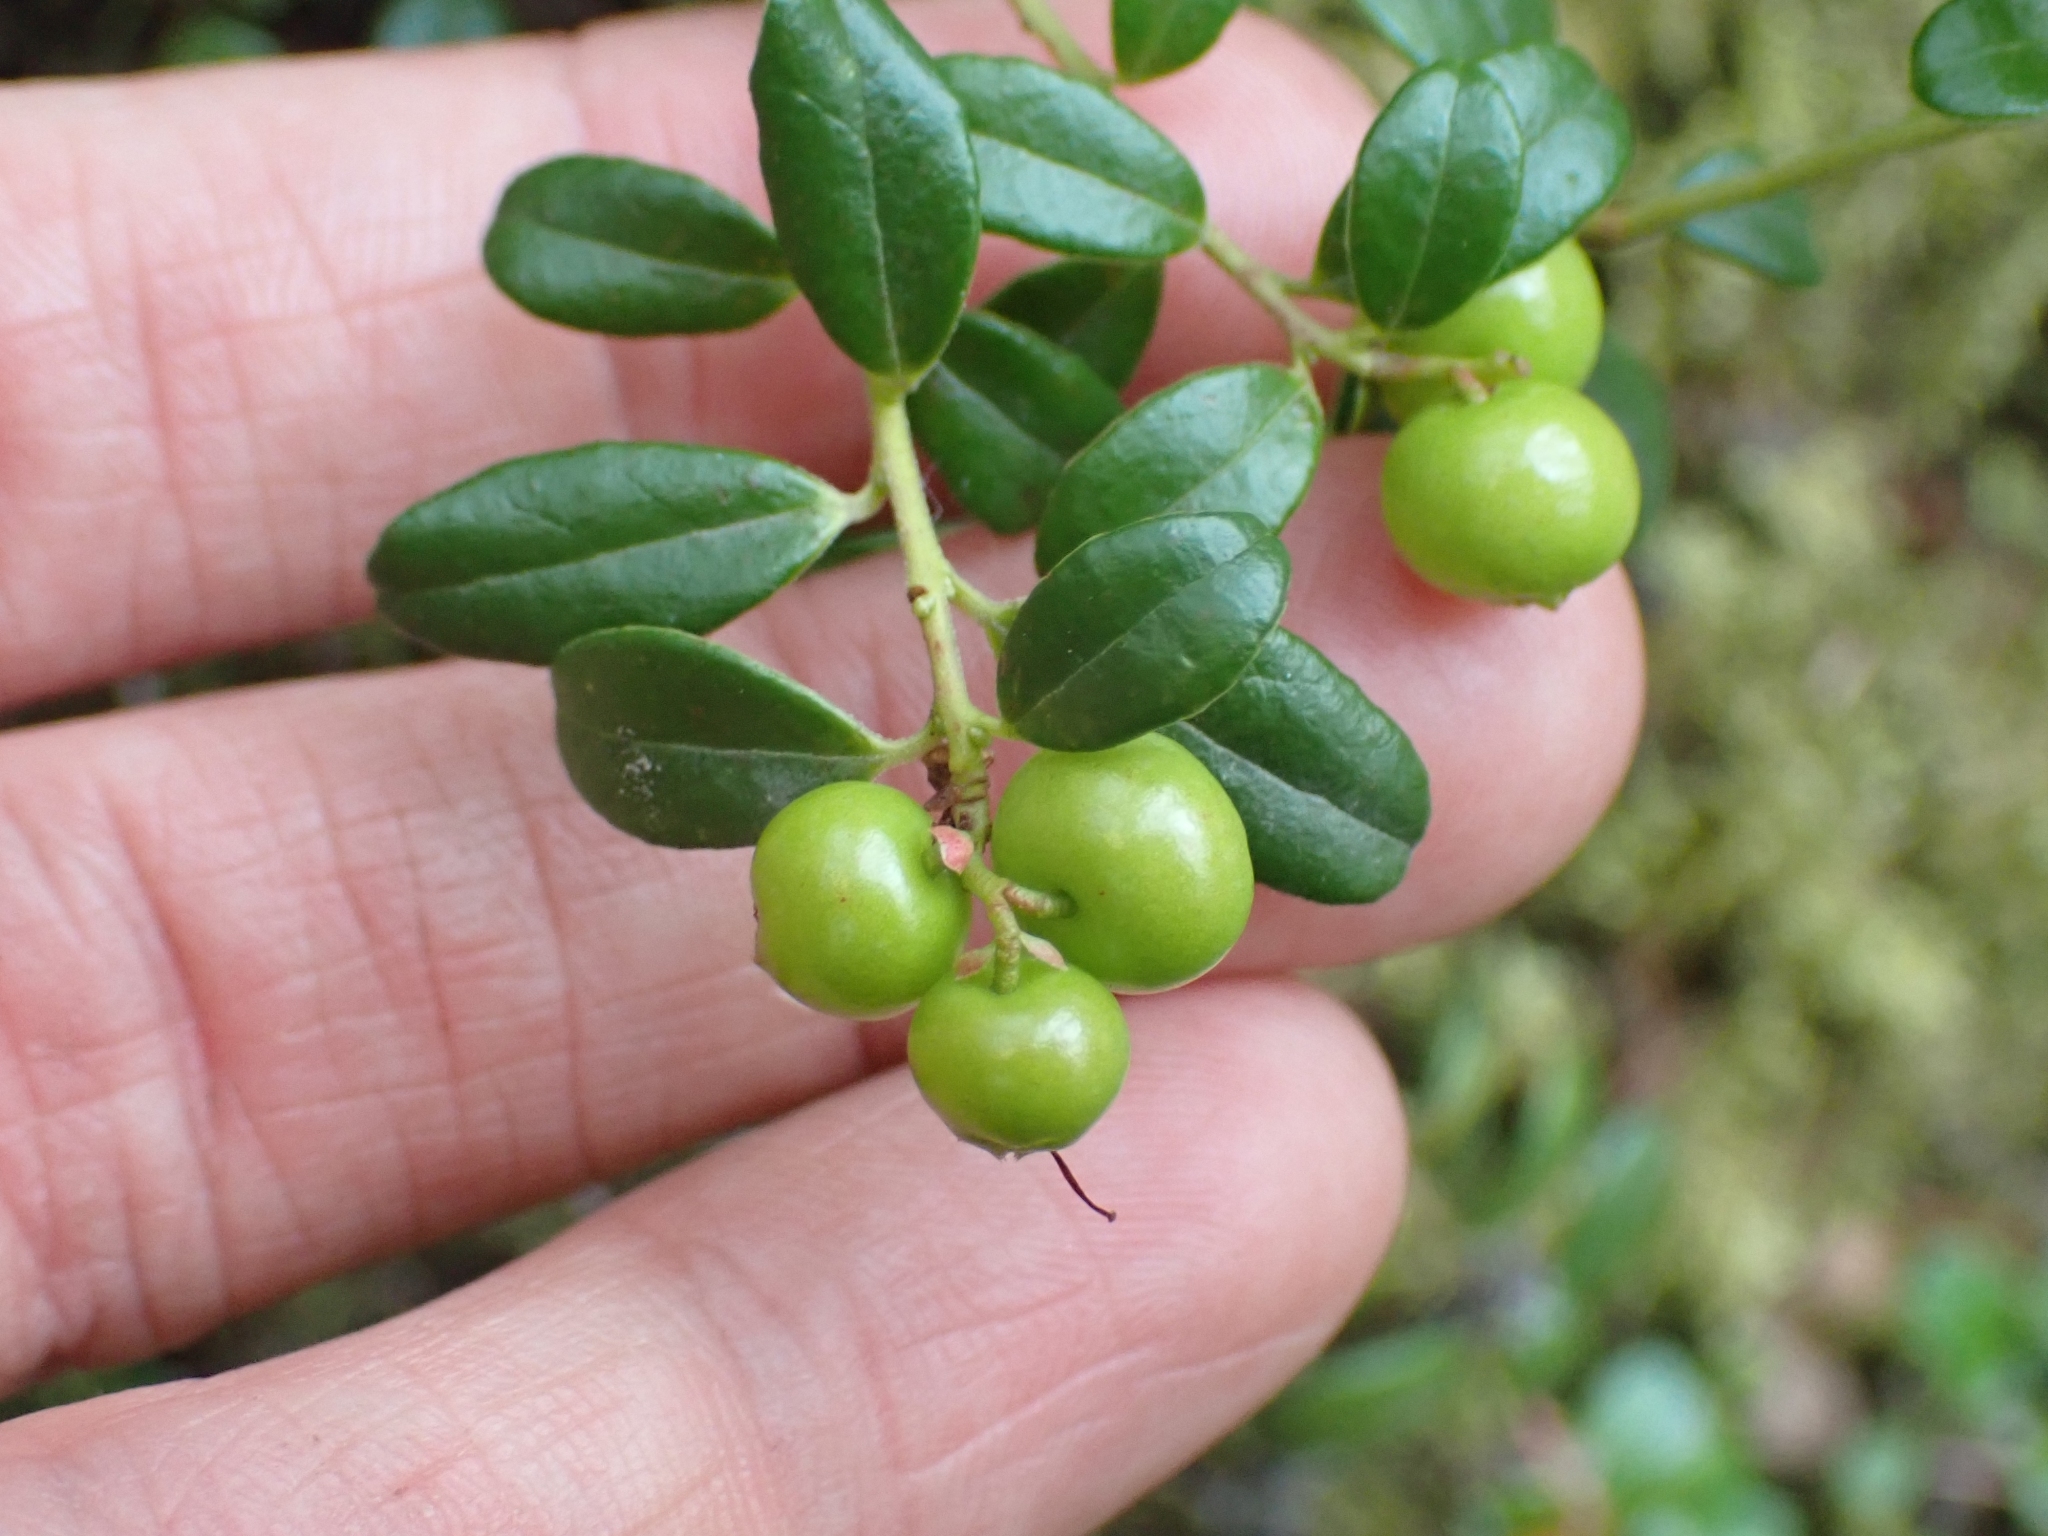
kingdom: Plantae
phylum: Tracheophyta
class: Magnoliopsida
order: Ericales
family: Ericaceae
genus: Vaccinium
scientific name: Vaccinium vitis-idaea
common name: Cowberry
